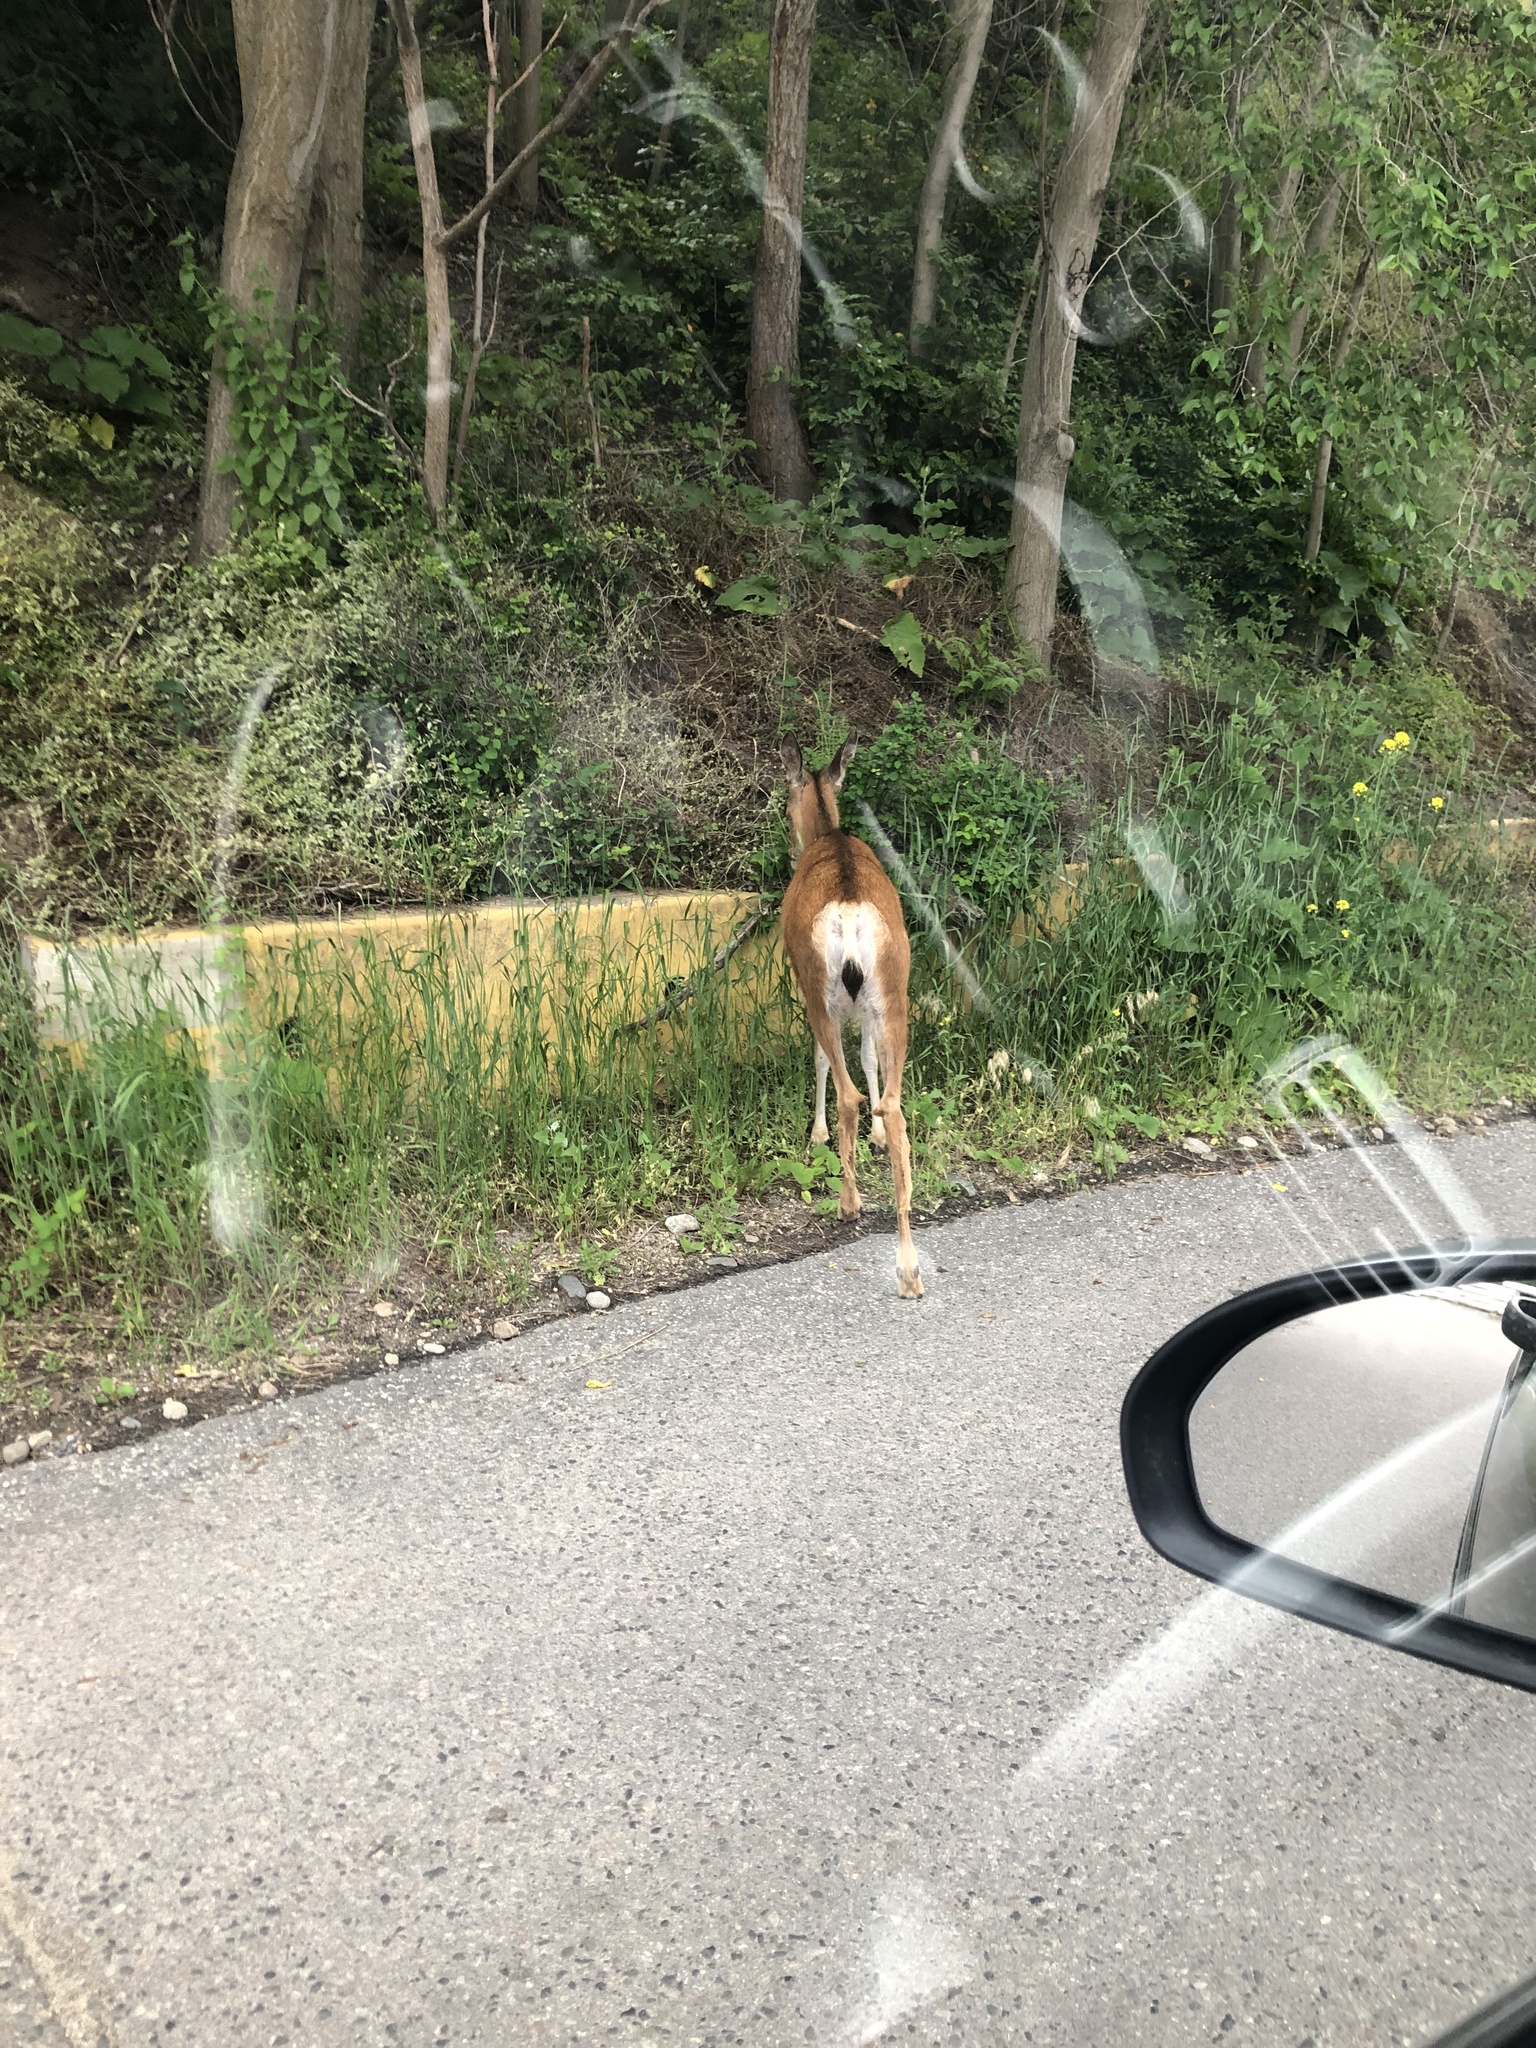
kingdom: Animalia
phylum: Chordata
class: Mammalia
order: Artiodactyla
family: Cervidae
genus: Odocoileus
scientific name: Odocoileus hemionus
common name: Mule deer
